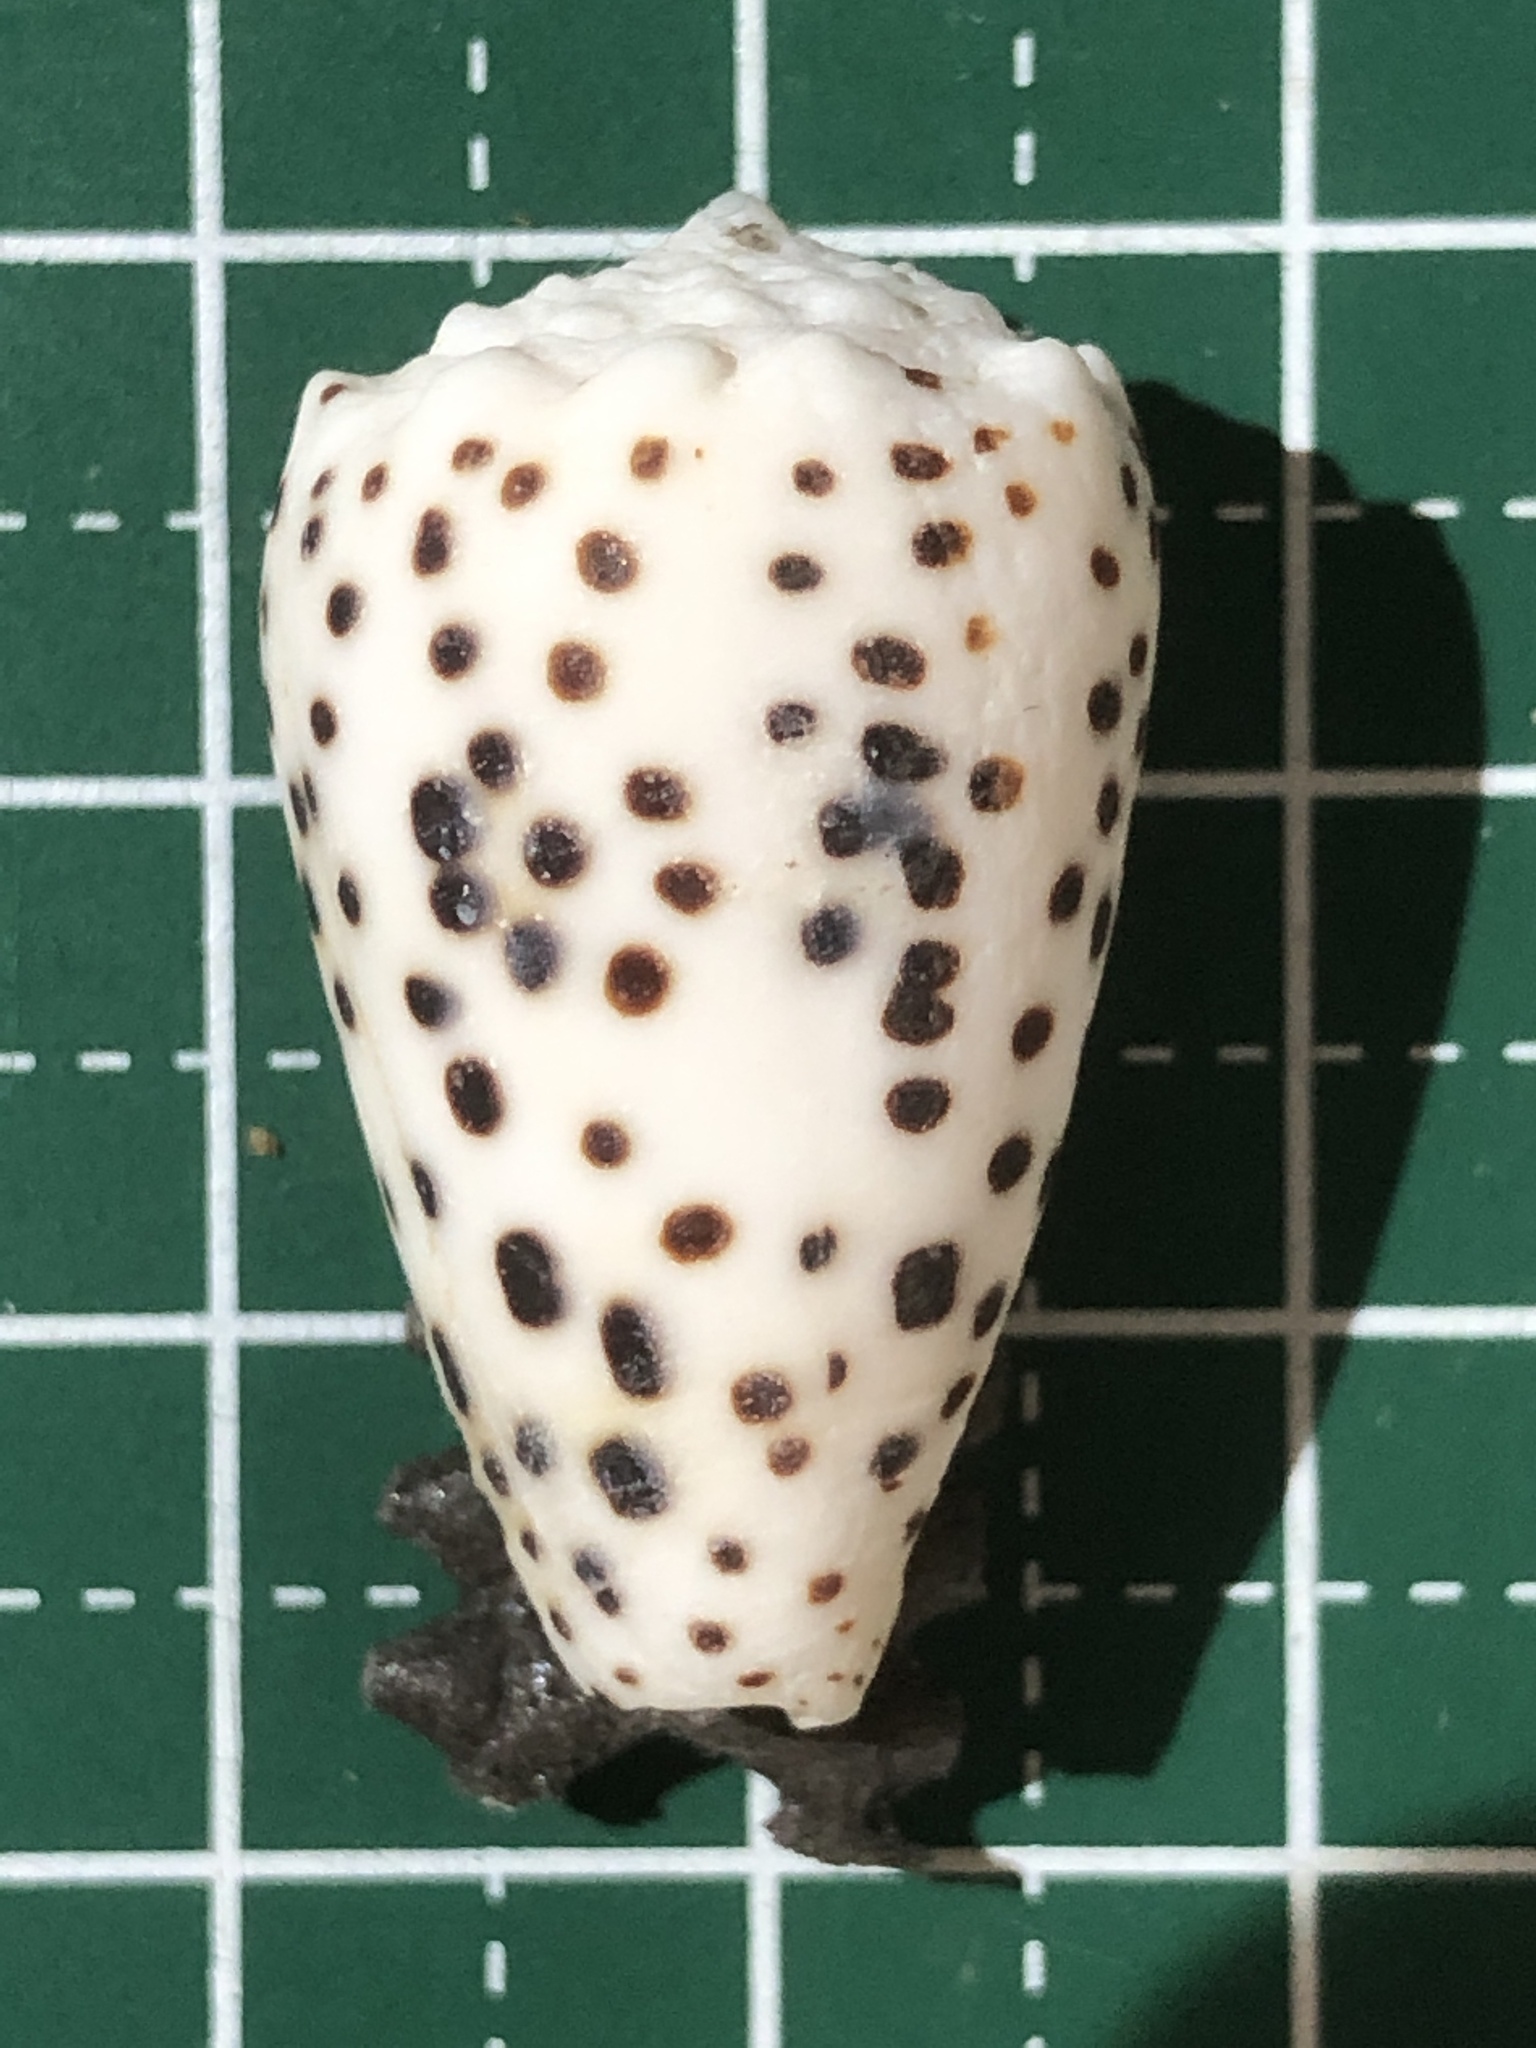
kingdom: Animalia
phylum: Mollusca
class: Gastropoda
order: Neogastropoda
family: Conidae
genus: Conus
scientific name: Conus pulicarius
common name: Flea-bite cone
